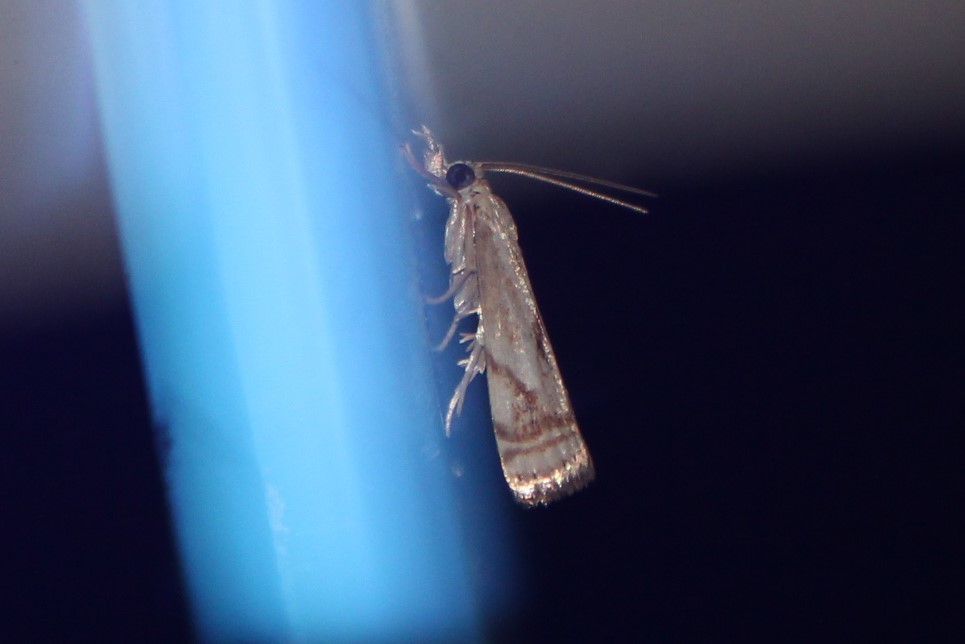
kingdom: Animalia
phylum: Arthropoda
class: Insecta
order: Lepidoptera
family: Crambidae
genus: Microcrambus
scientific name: Microcrambus elegans
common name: Elegant grass-veneer
